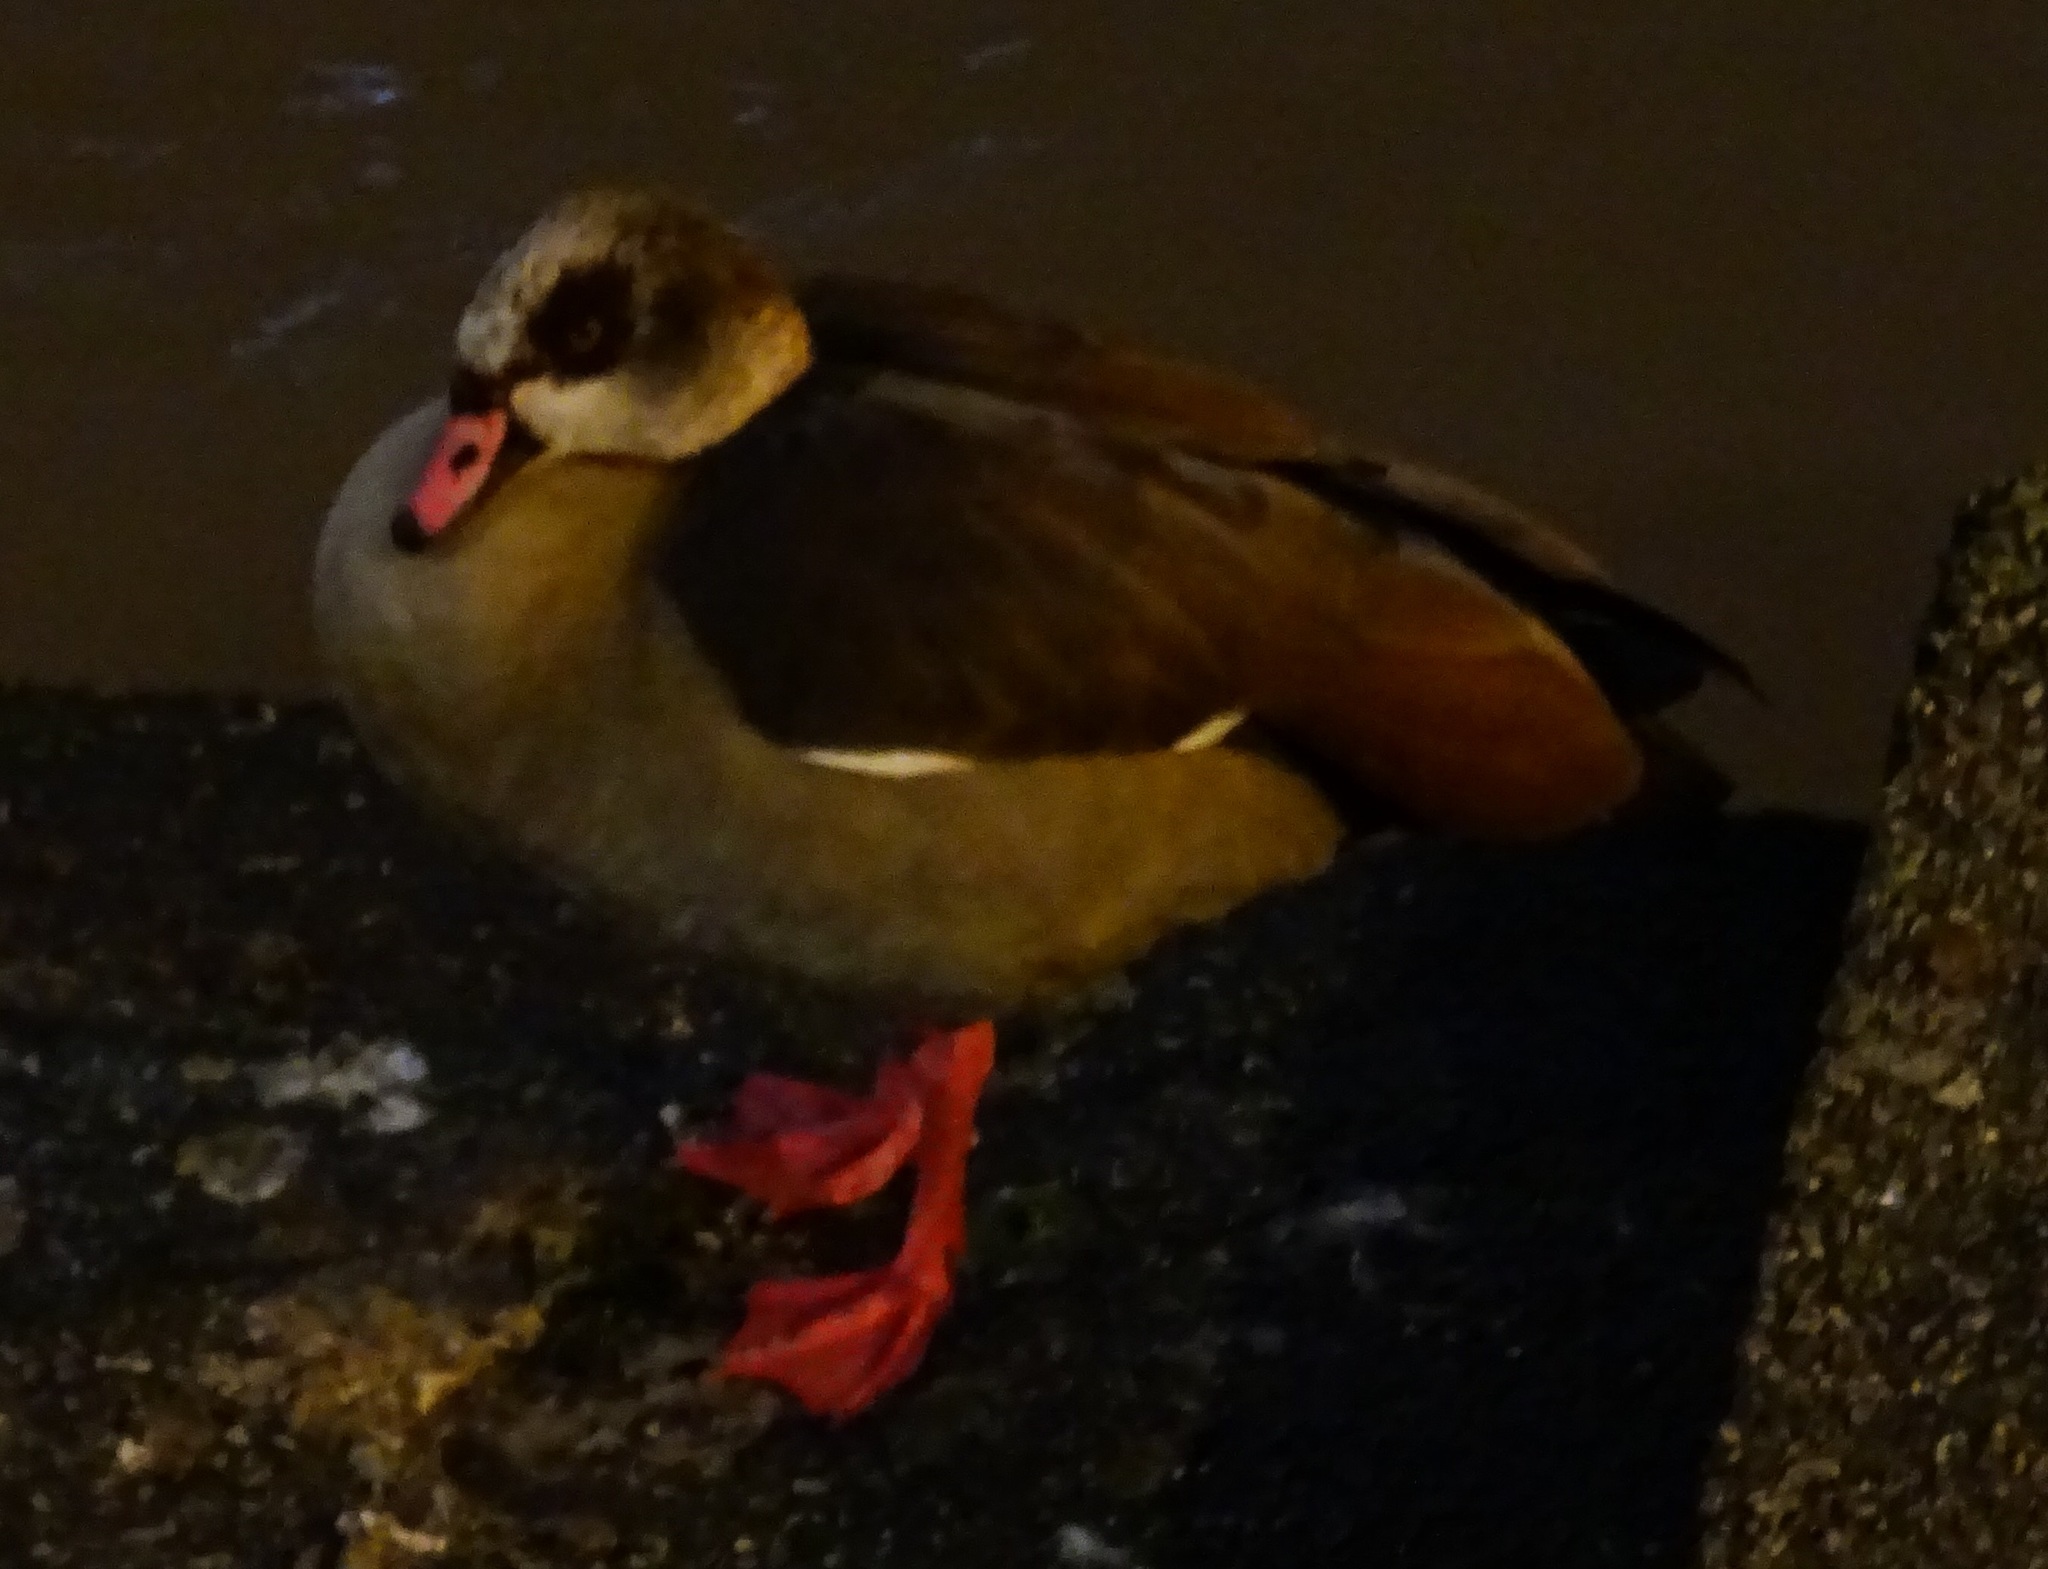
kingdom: Animalia
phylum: Chordata
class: Aves
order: Anseriformes
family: Anatidae
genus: Alopochen
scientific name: Alopochen aegyptiaca
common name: Egyptian goose
